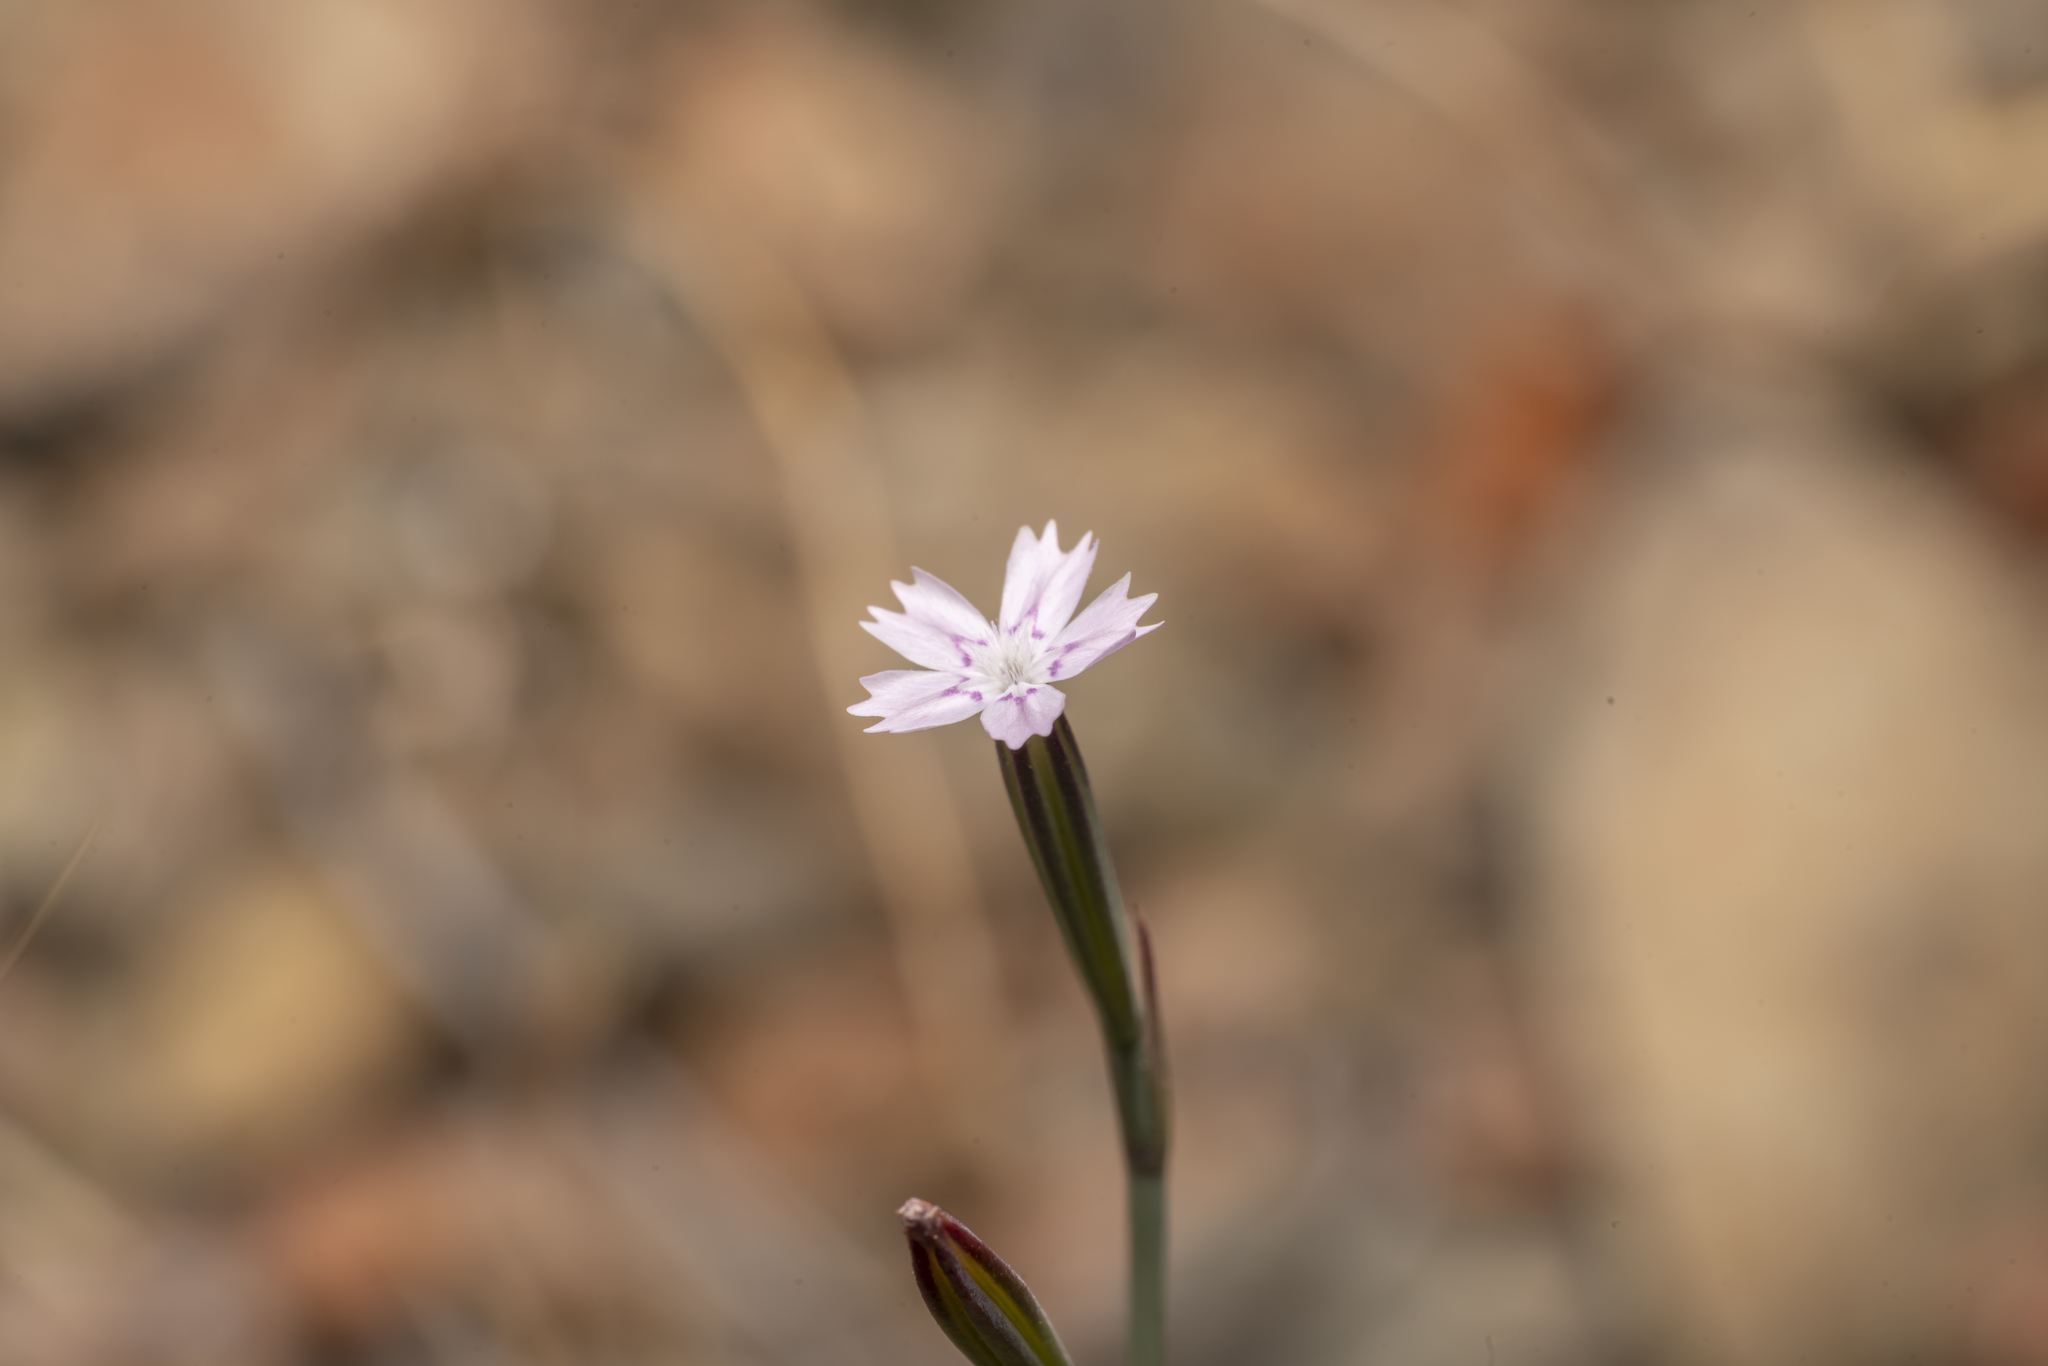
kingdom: Plantae
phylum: Tracheophyta
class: Magnoliopsida
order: Caryophyllales
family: Caryophyllaceae
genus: Dianthus
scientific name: Dianthus quadridentatus
